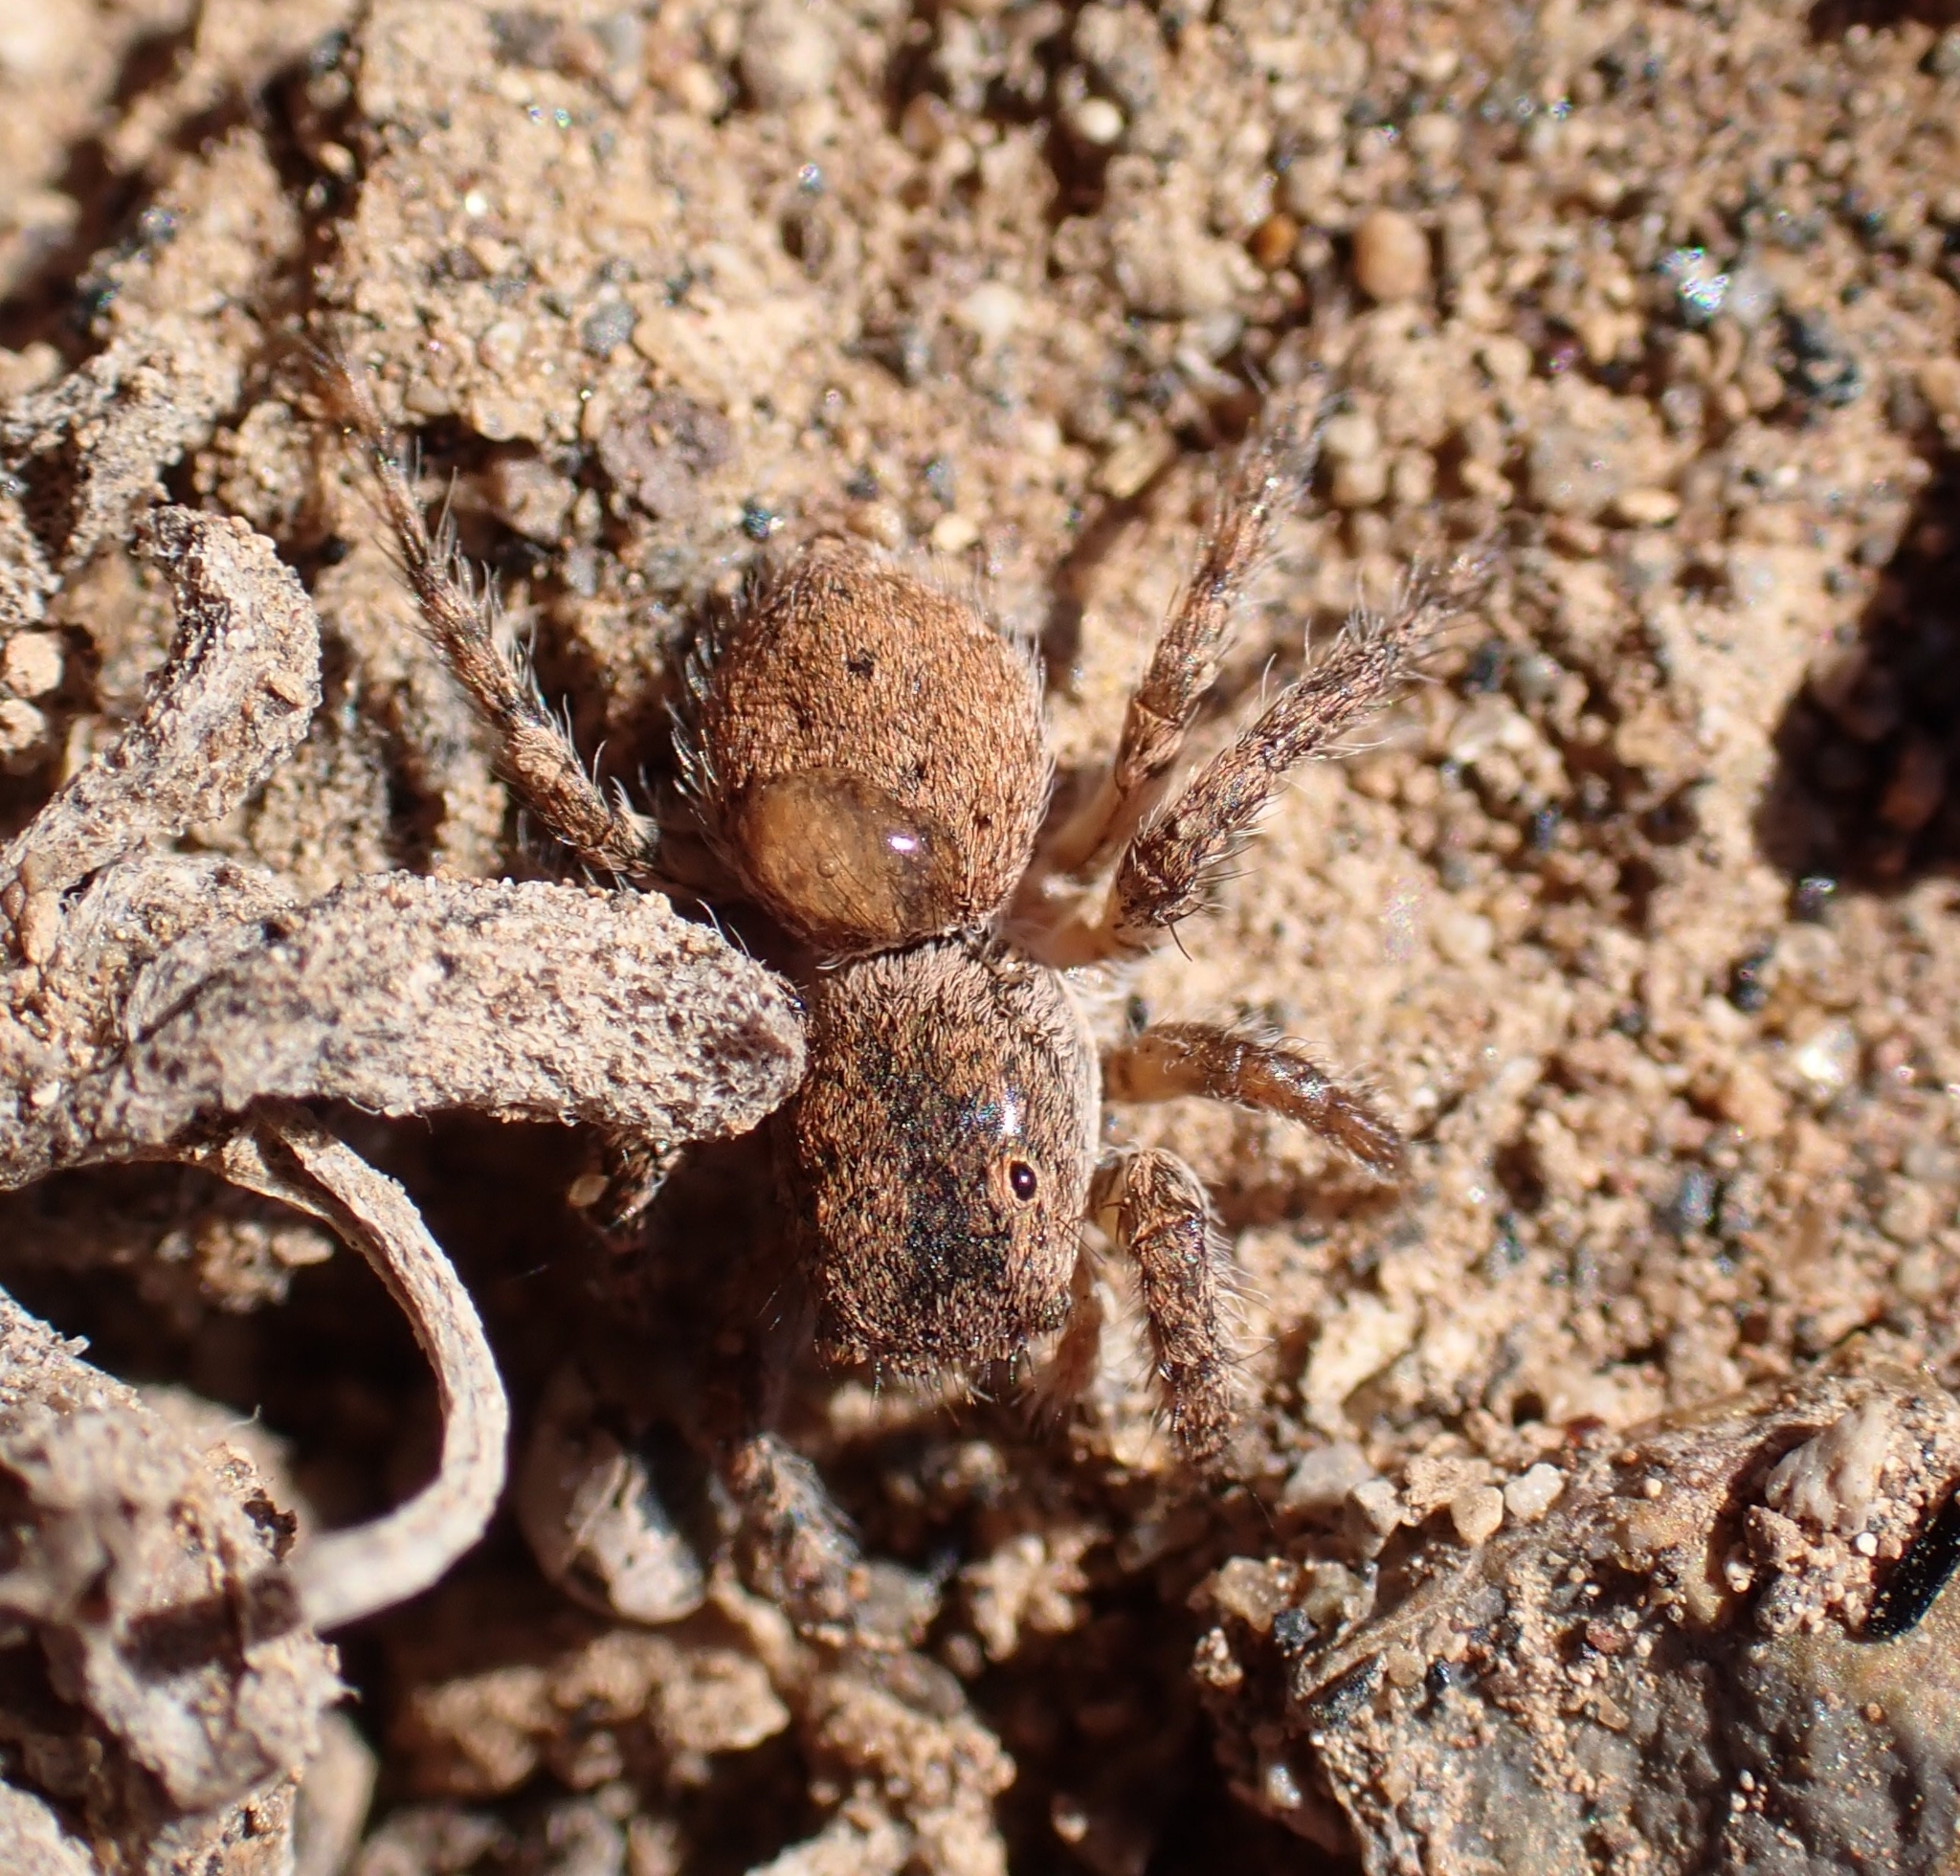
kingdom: Animalia
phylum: Arthropoda
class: Arachnida
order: Araneae
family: Salticidae
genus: Aelurillus
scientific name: Aelurillus lucasi
